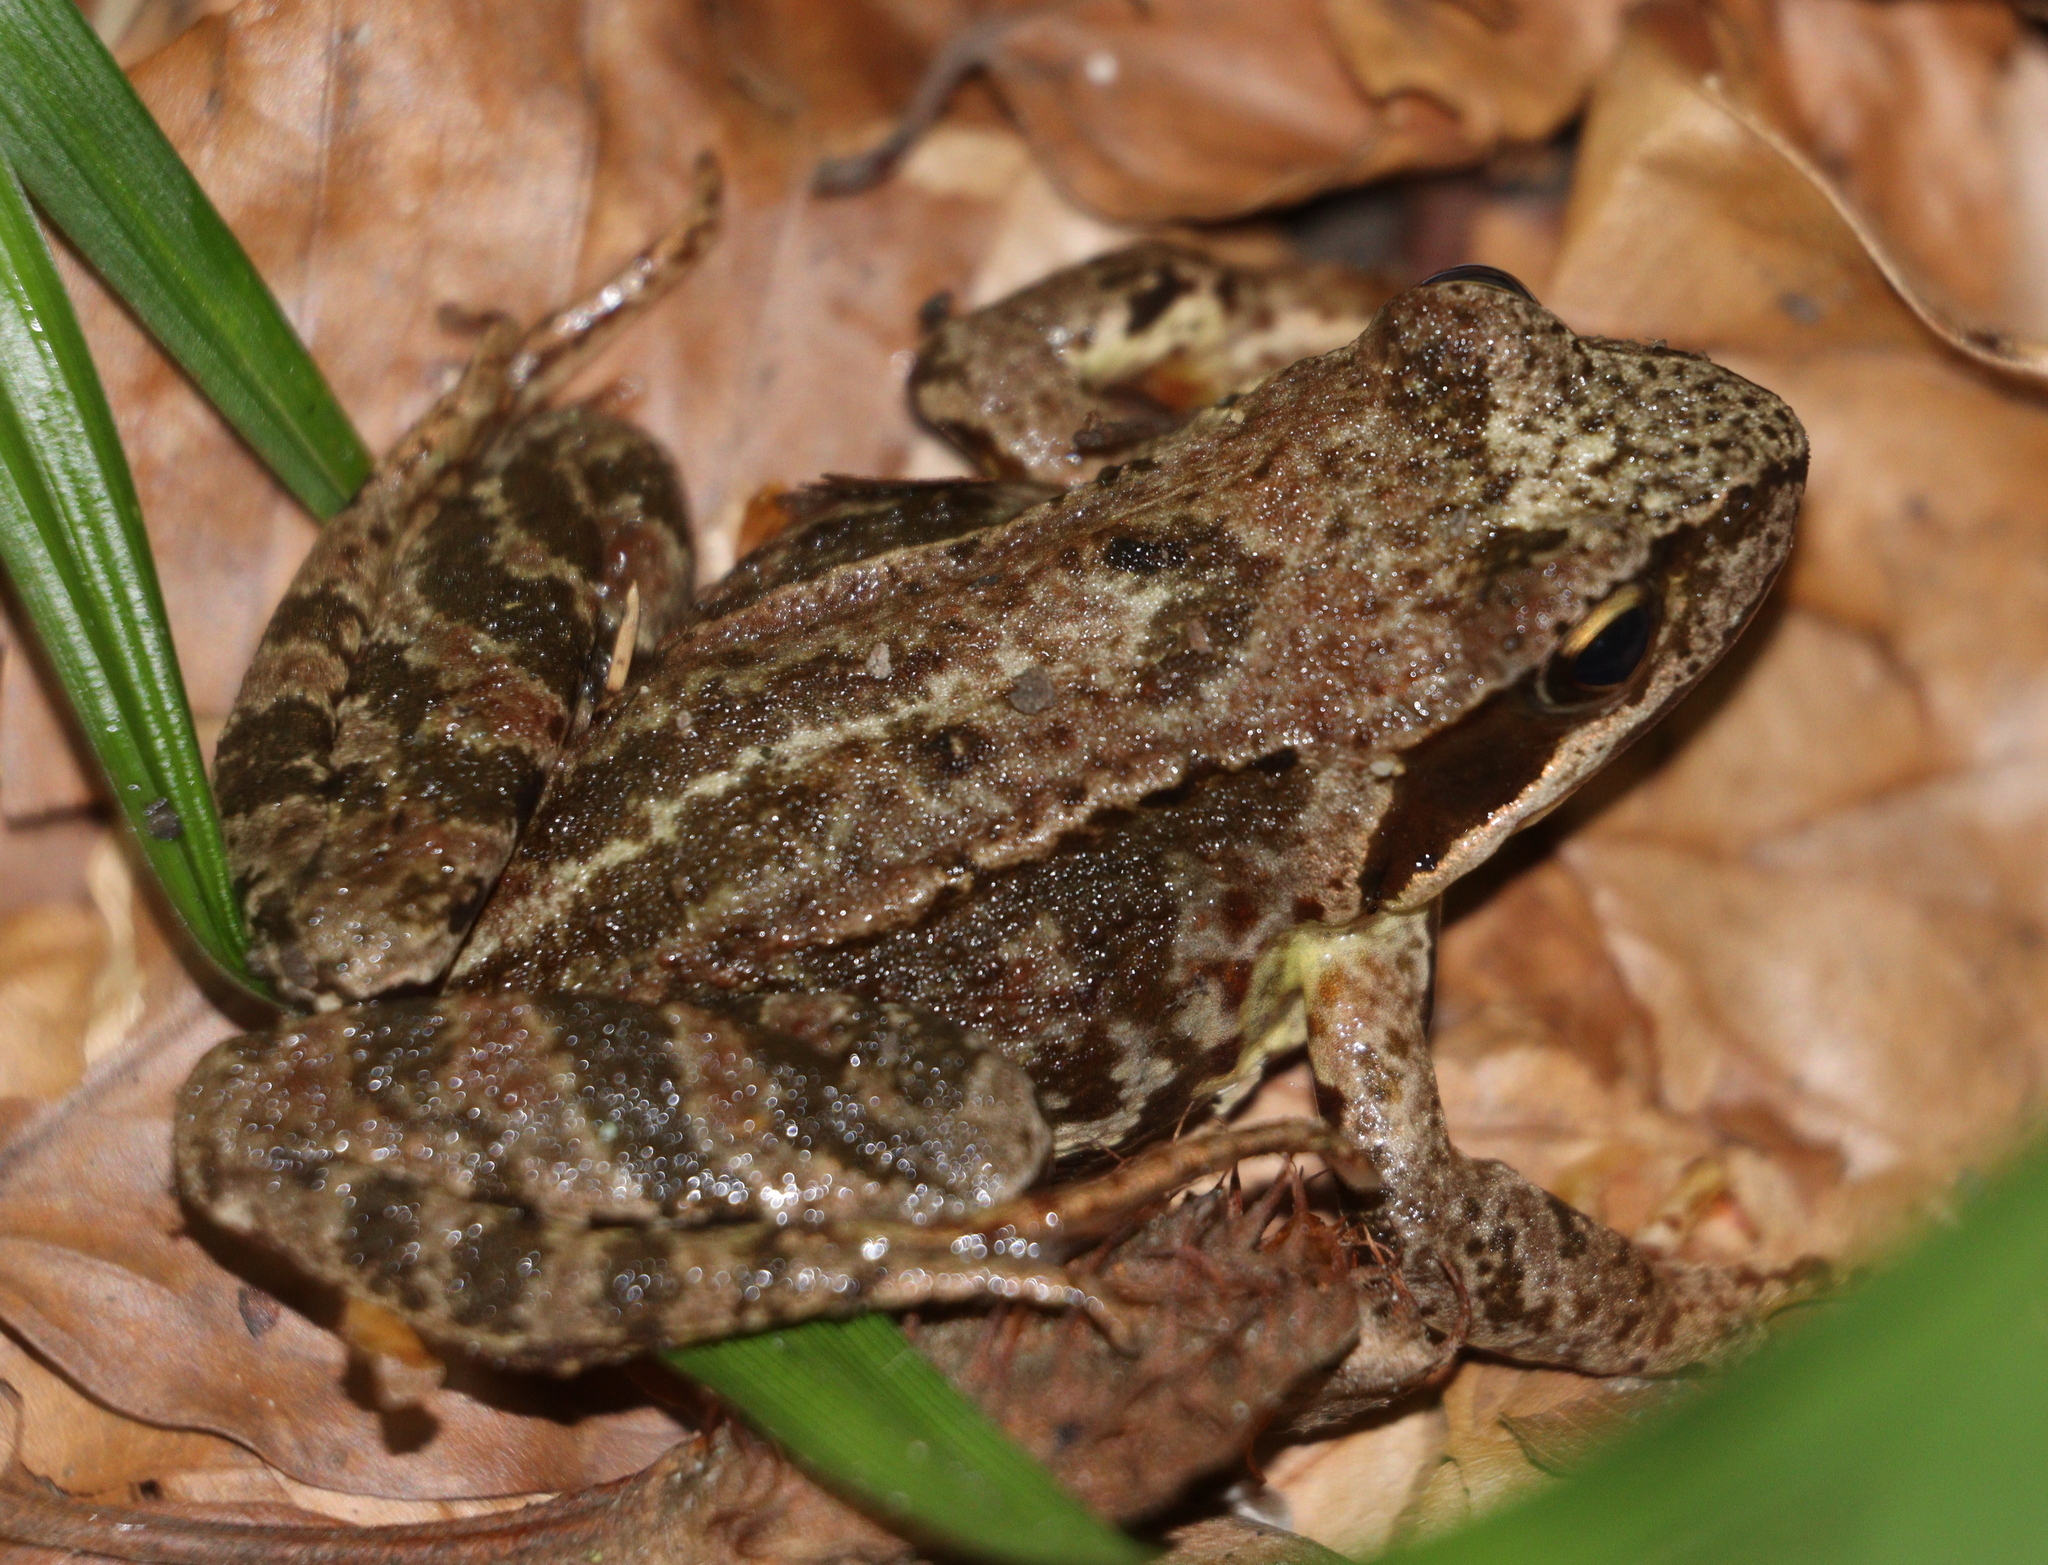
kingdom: Animalia
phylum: Chordata
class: Amphibia
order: Anura
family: Ranidae
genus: Rana
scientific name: Rana temporaria
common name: Common frog
